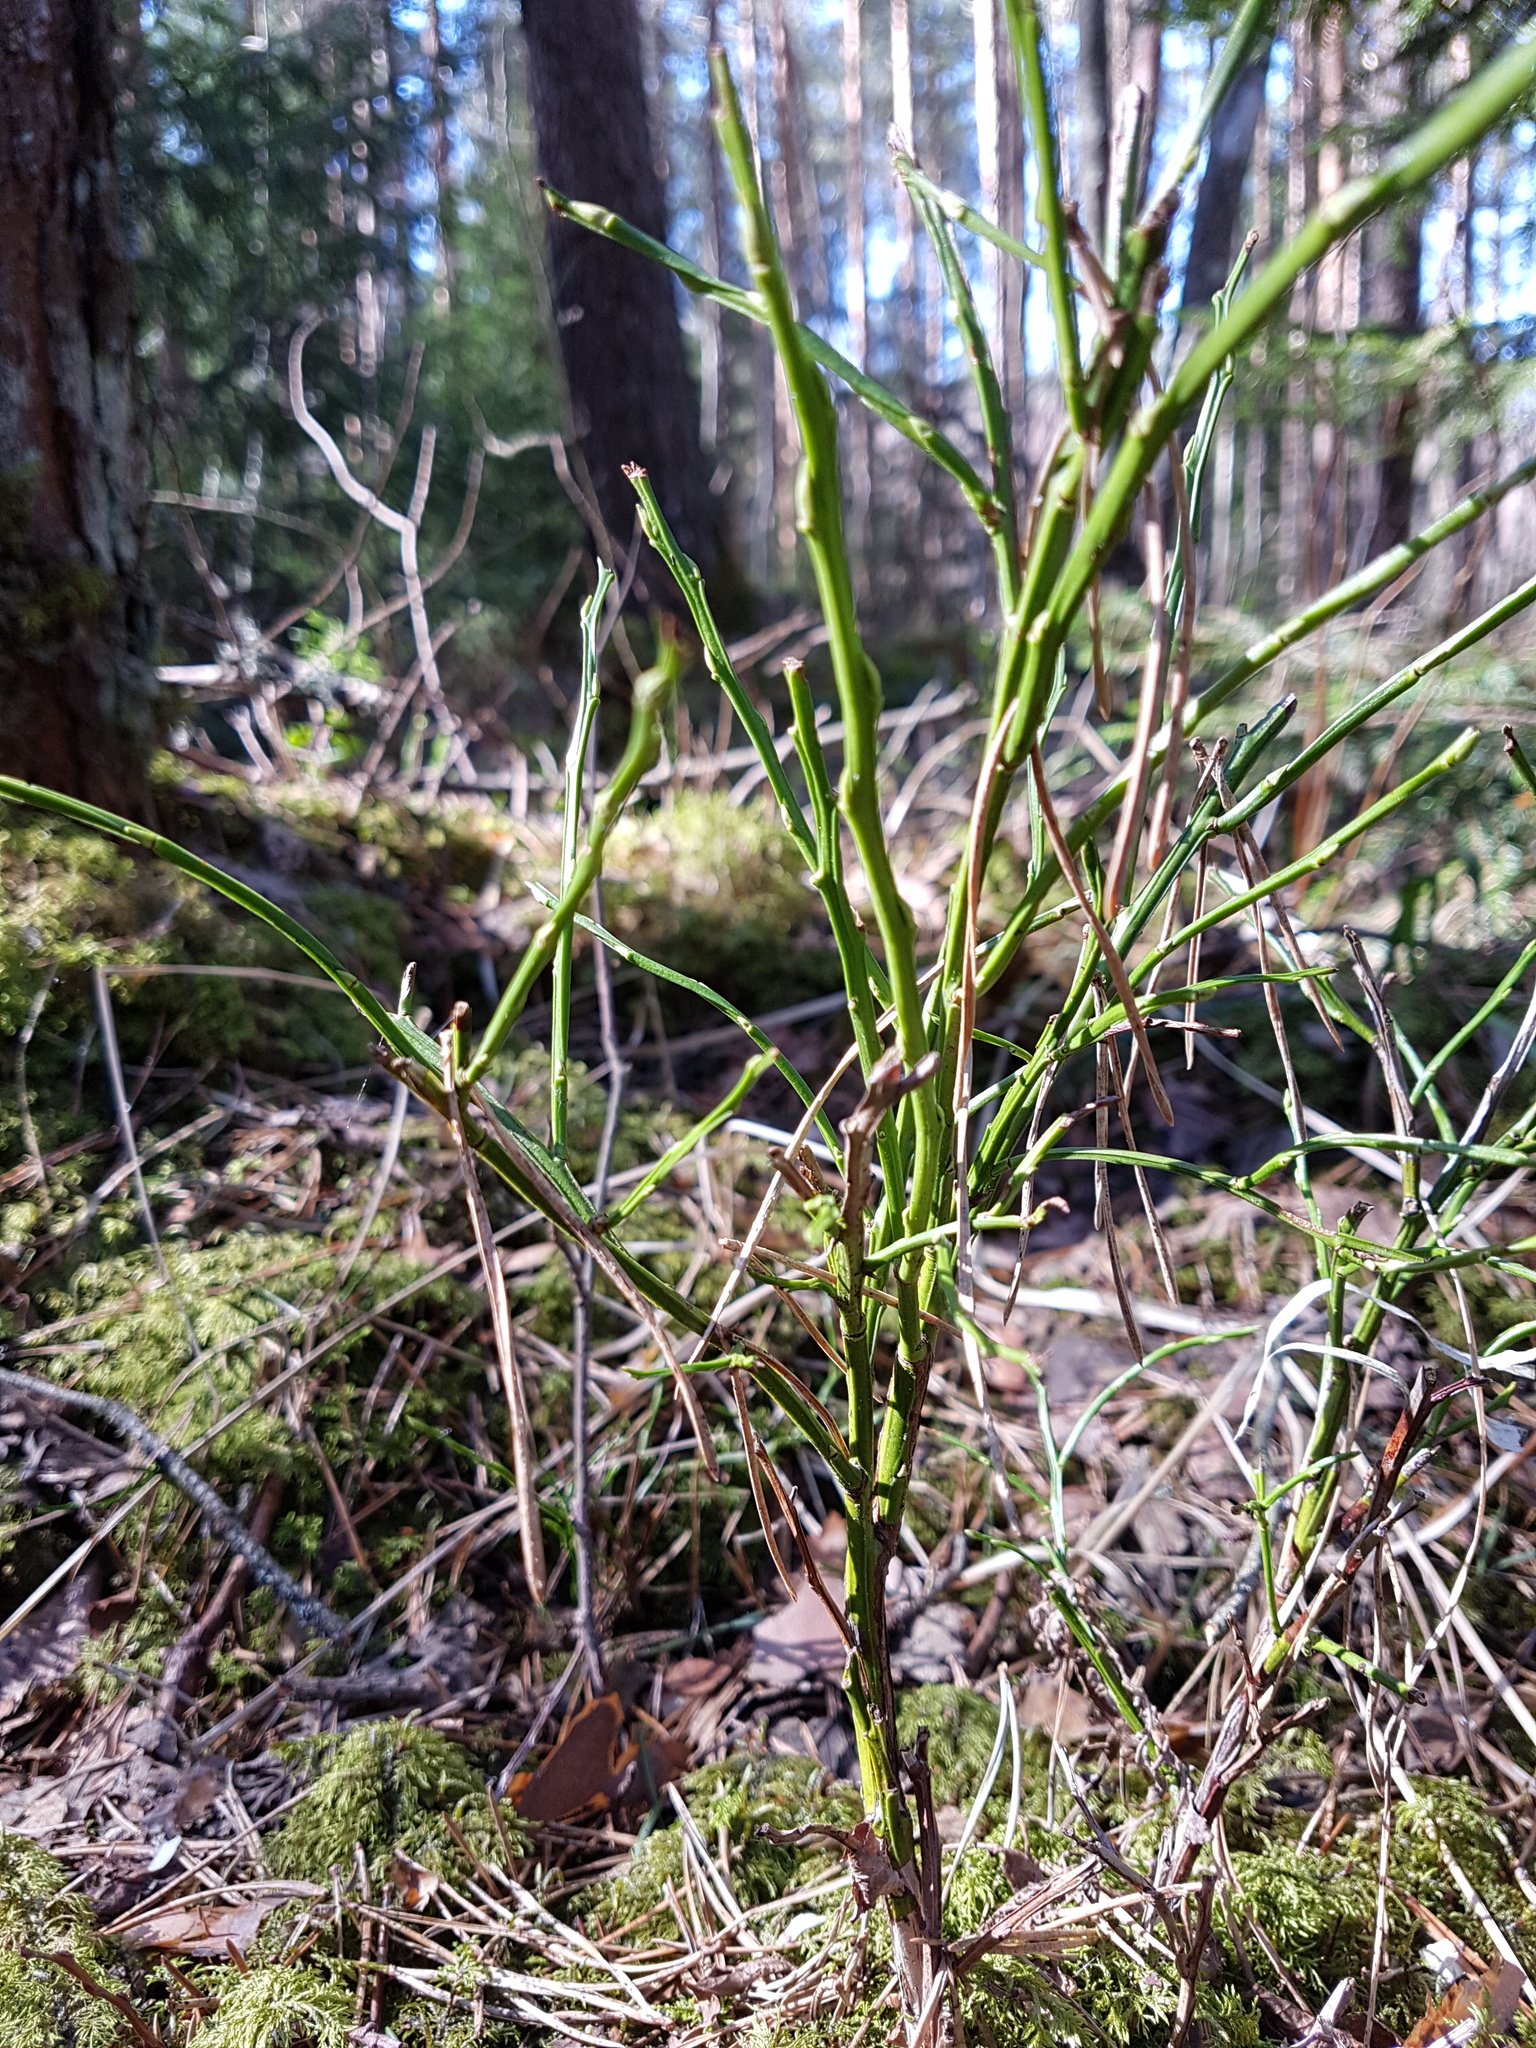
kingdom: Plantae
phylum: Tracheophyta
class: Magnoliopsida
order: Ericales
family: Ericaceae
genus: Vaccinium
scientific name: Vaccinium myrtillus
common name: Bilberry
